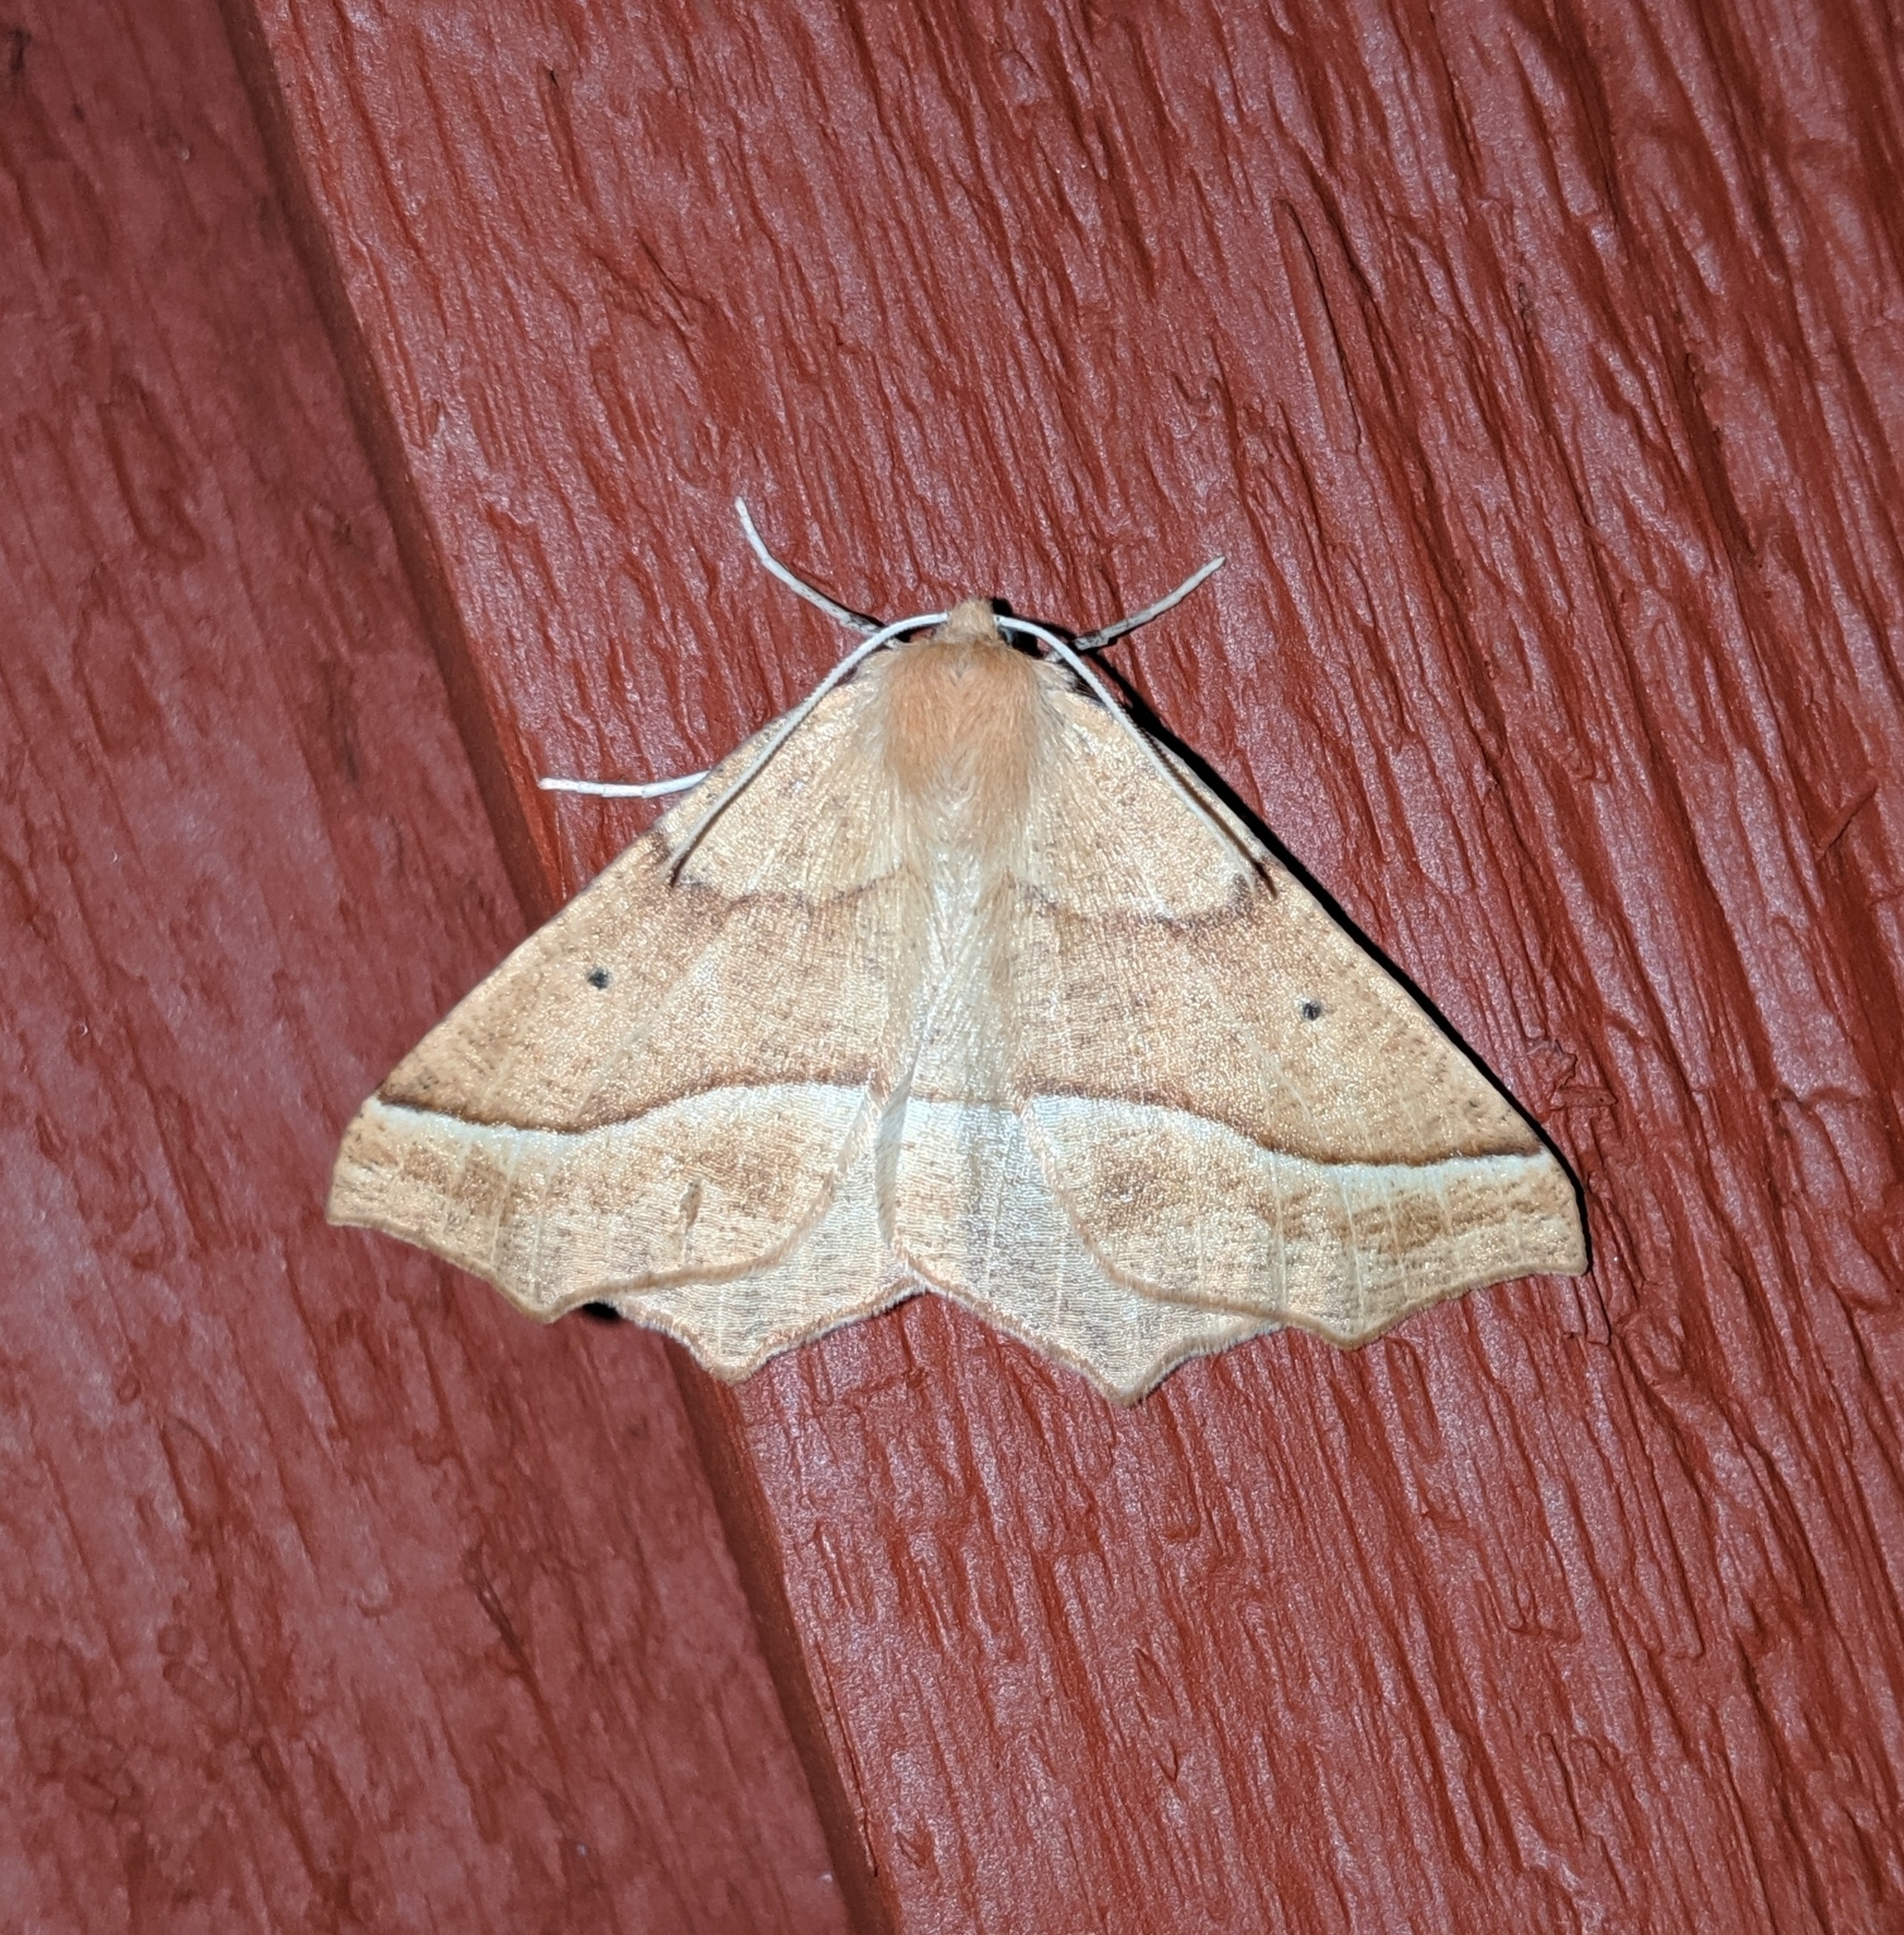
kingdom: Animalia
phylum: Arthropoda
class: Insecta
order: Lepidoptera
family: Geometridae
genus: Synaxis
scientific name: Synaxis jubararia
